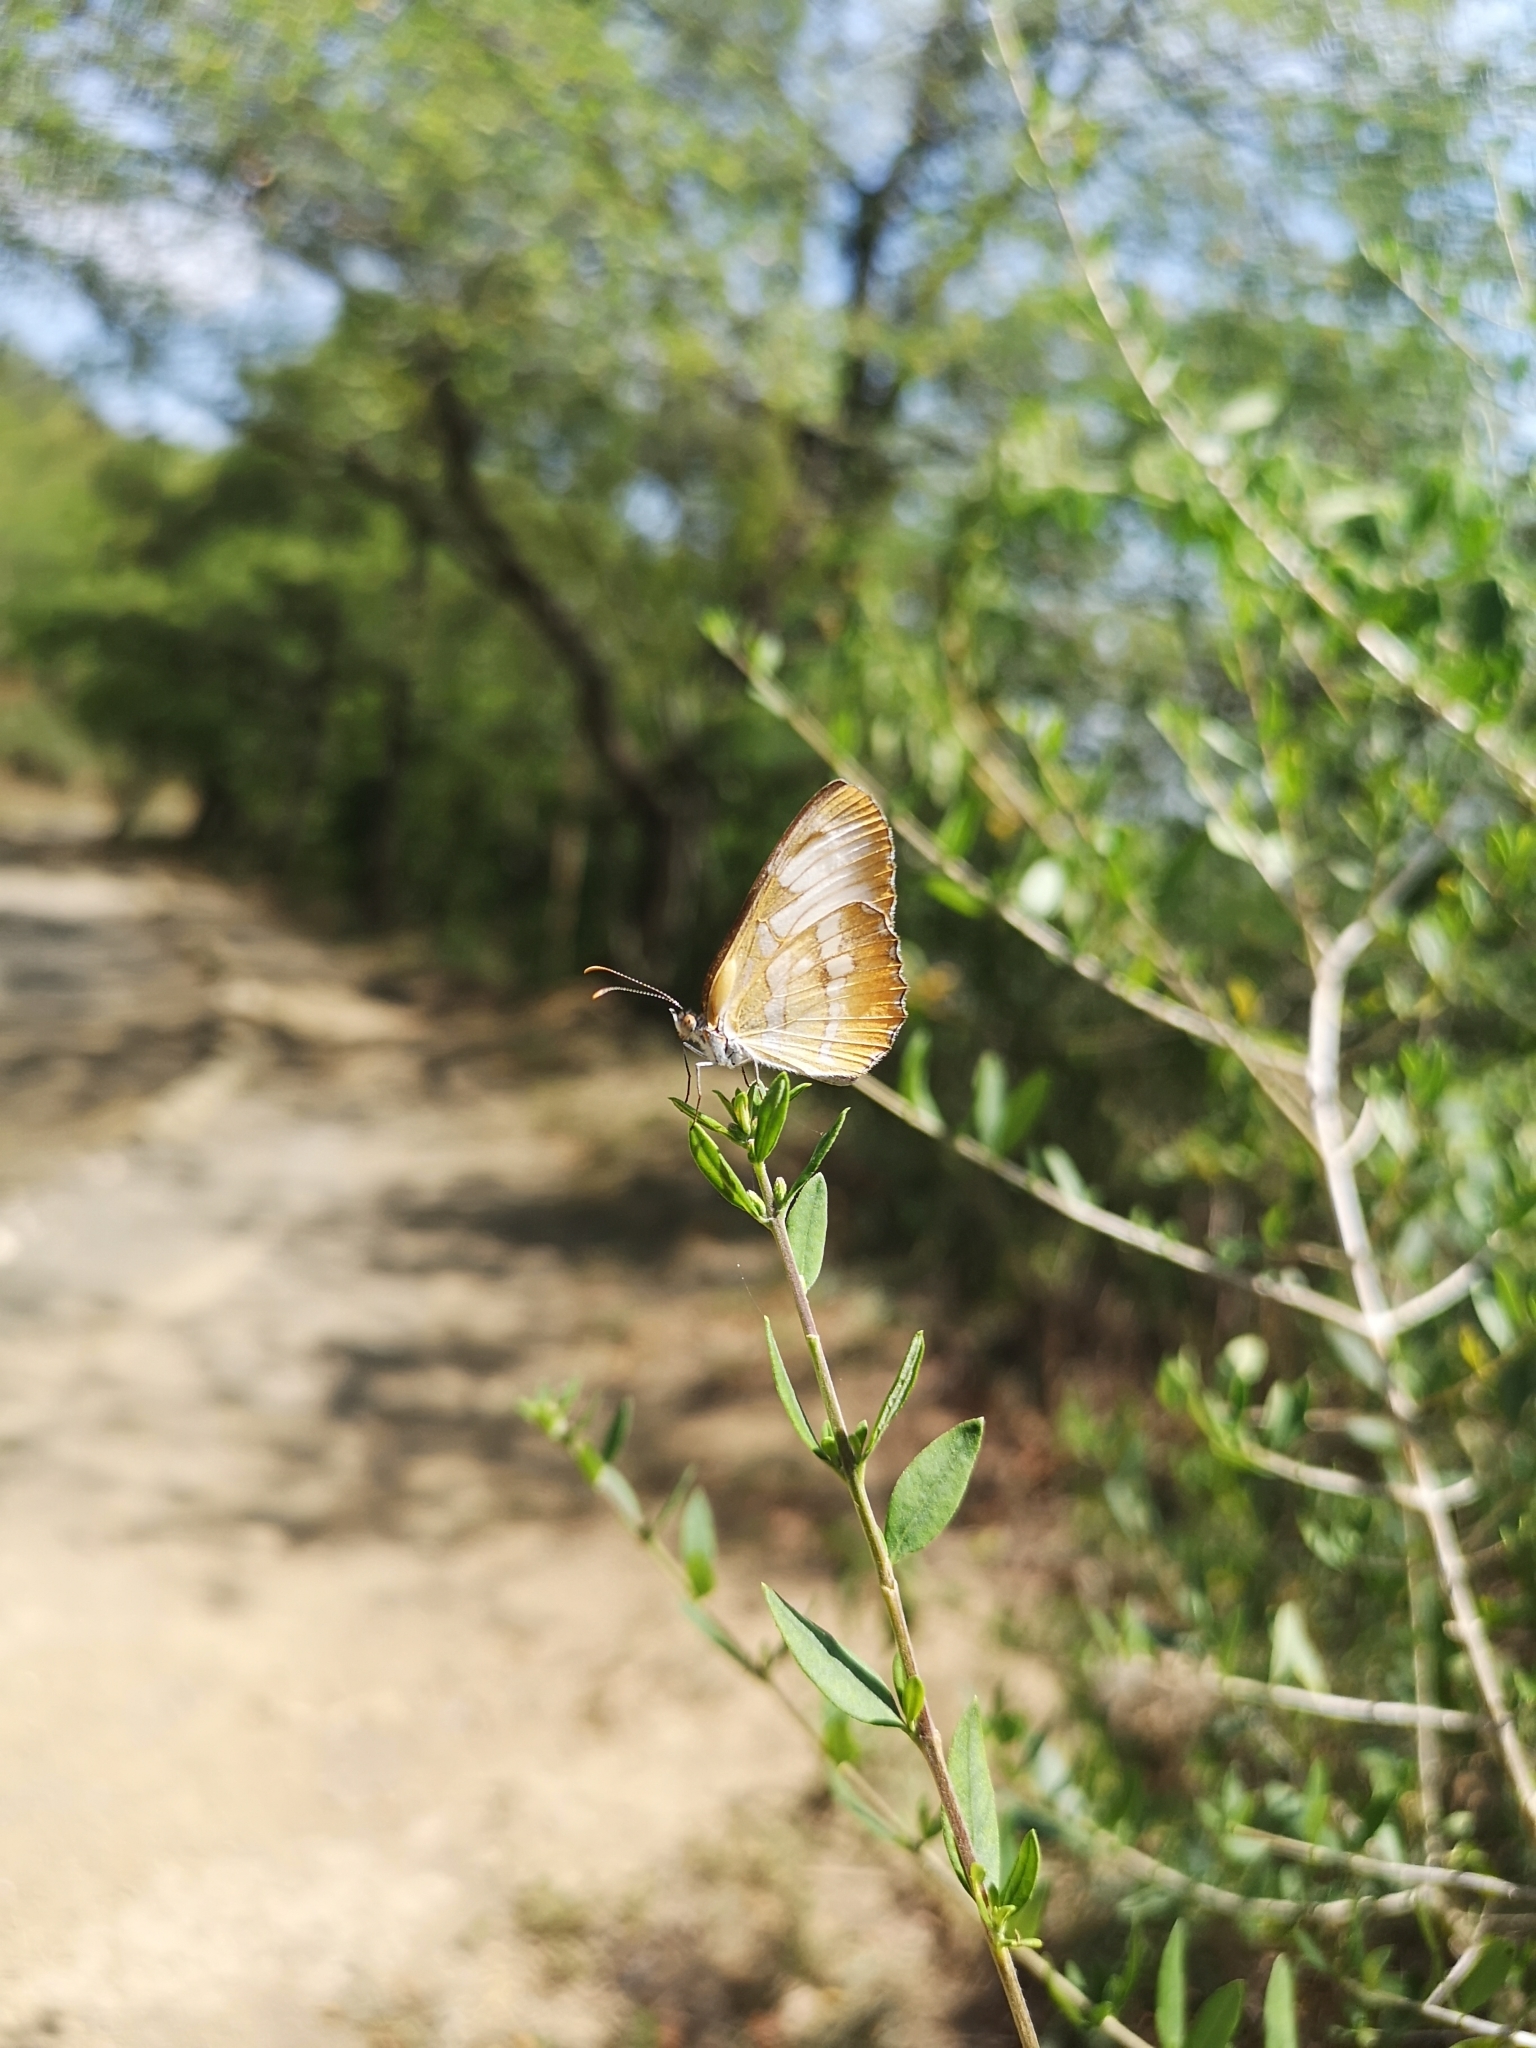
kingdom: Animalia
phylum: Arthropoda
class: Insecta
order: Lepidoptera
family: Nymphalidae
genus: Mestra
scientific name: Mestra amymone
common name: Common mestra
